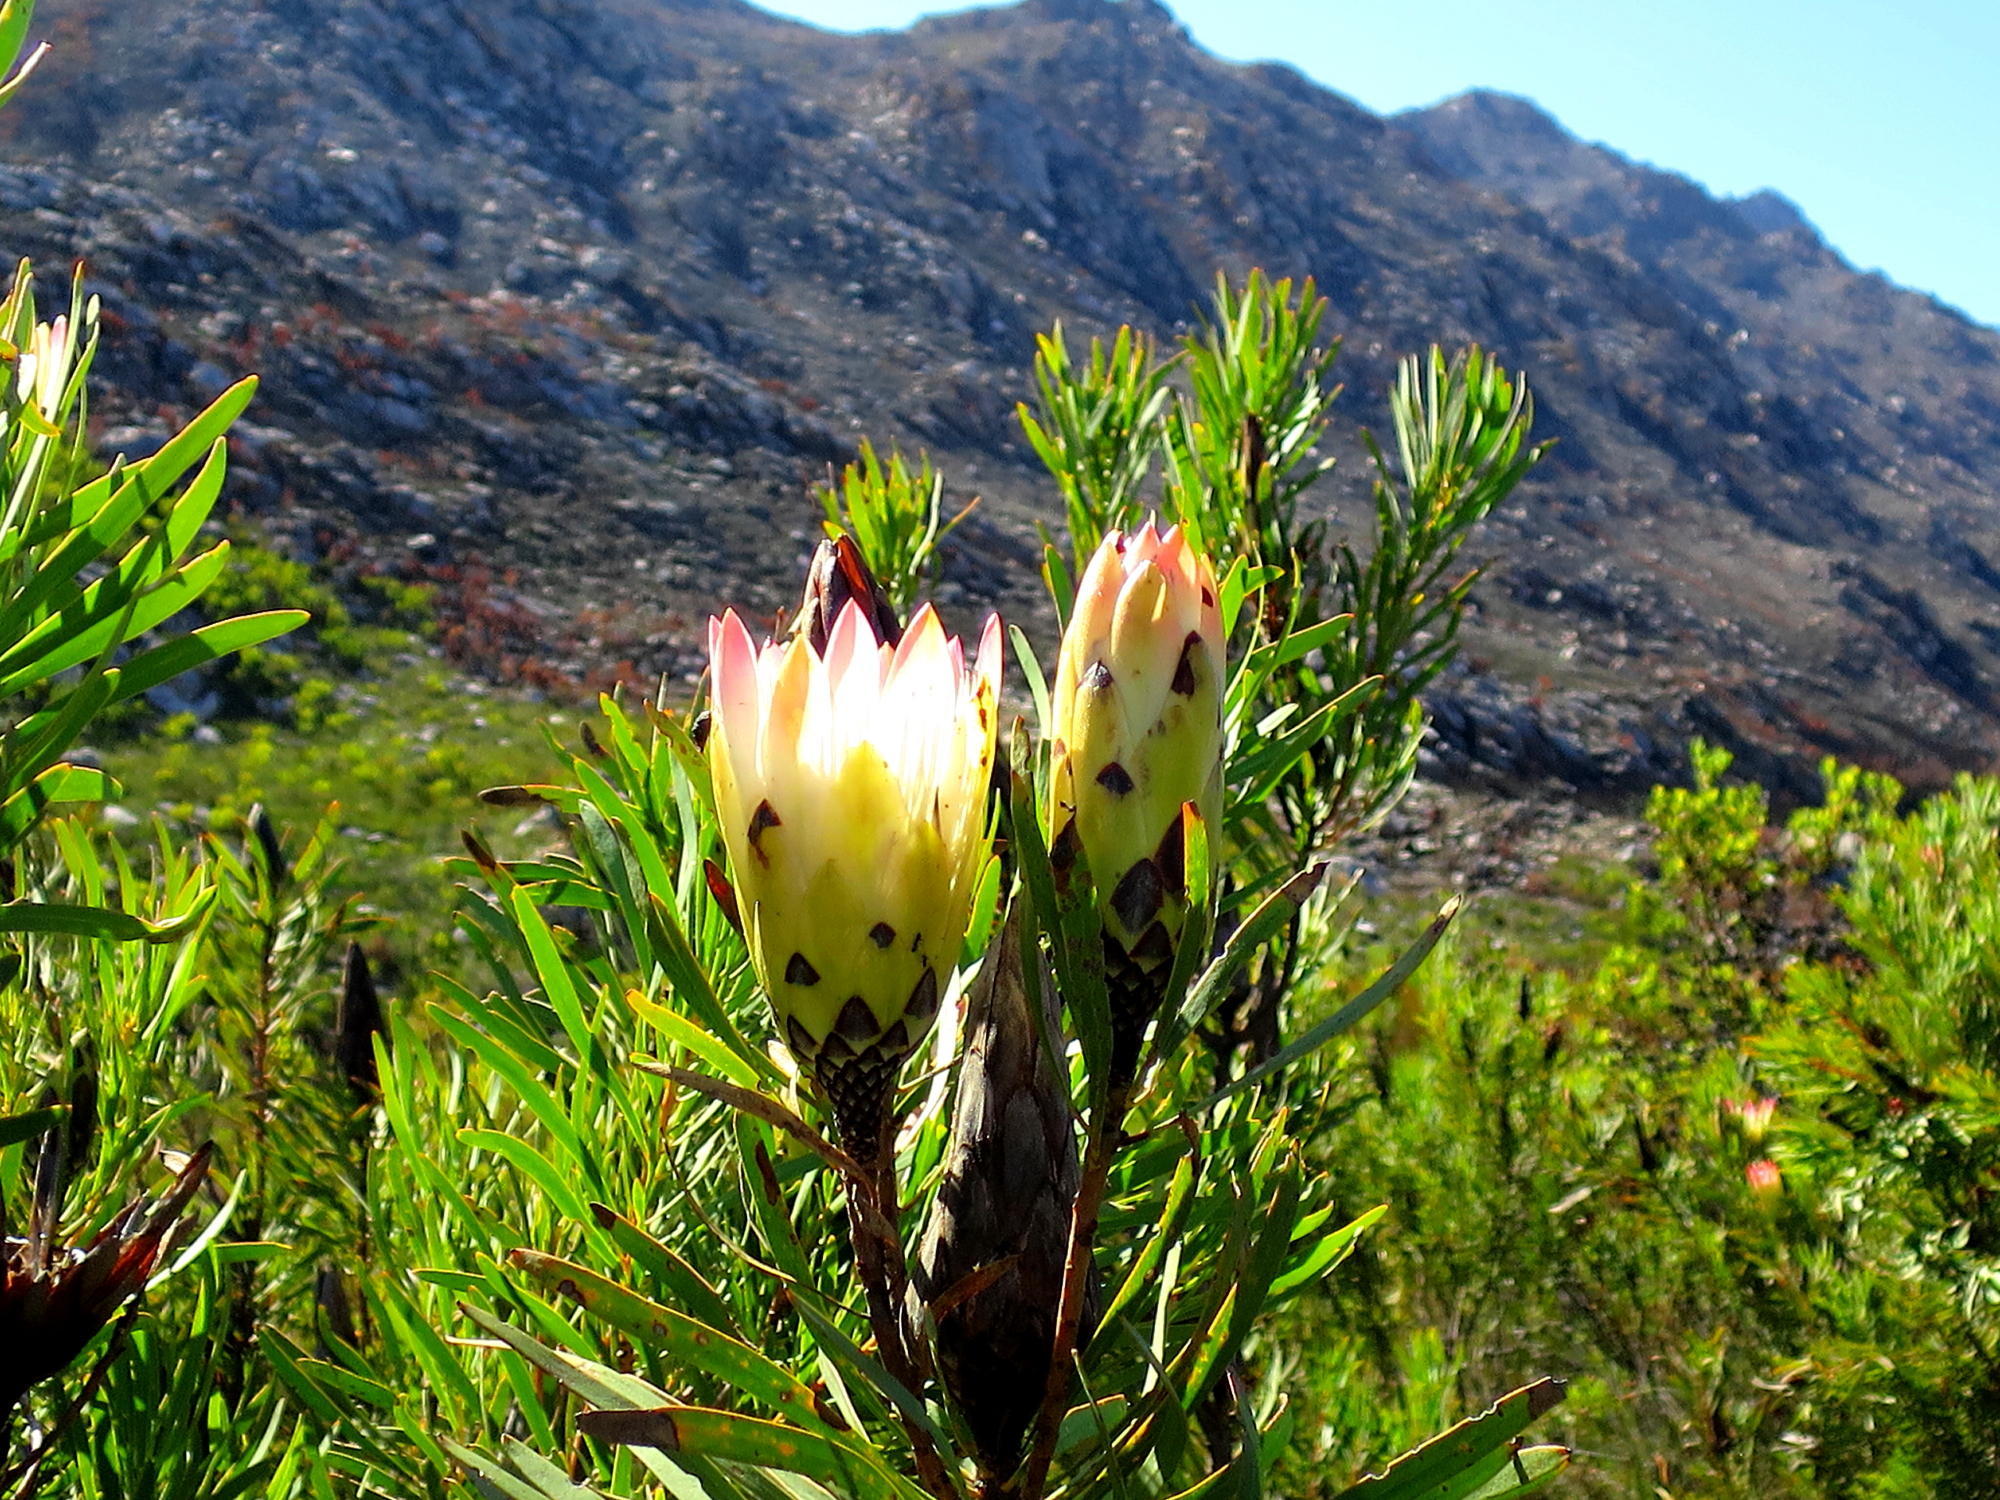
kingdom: Plantae
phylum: Tracheophyta
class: Magnoliopsida
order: Proteales
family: Proteaceae
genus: Protea
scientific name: Protea repens
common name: Sugarbush
